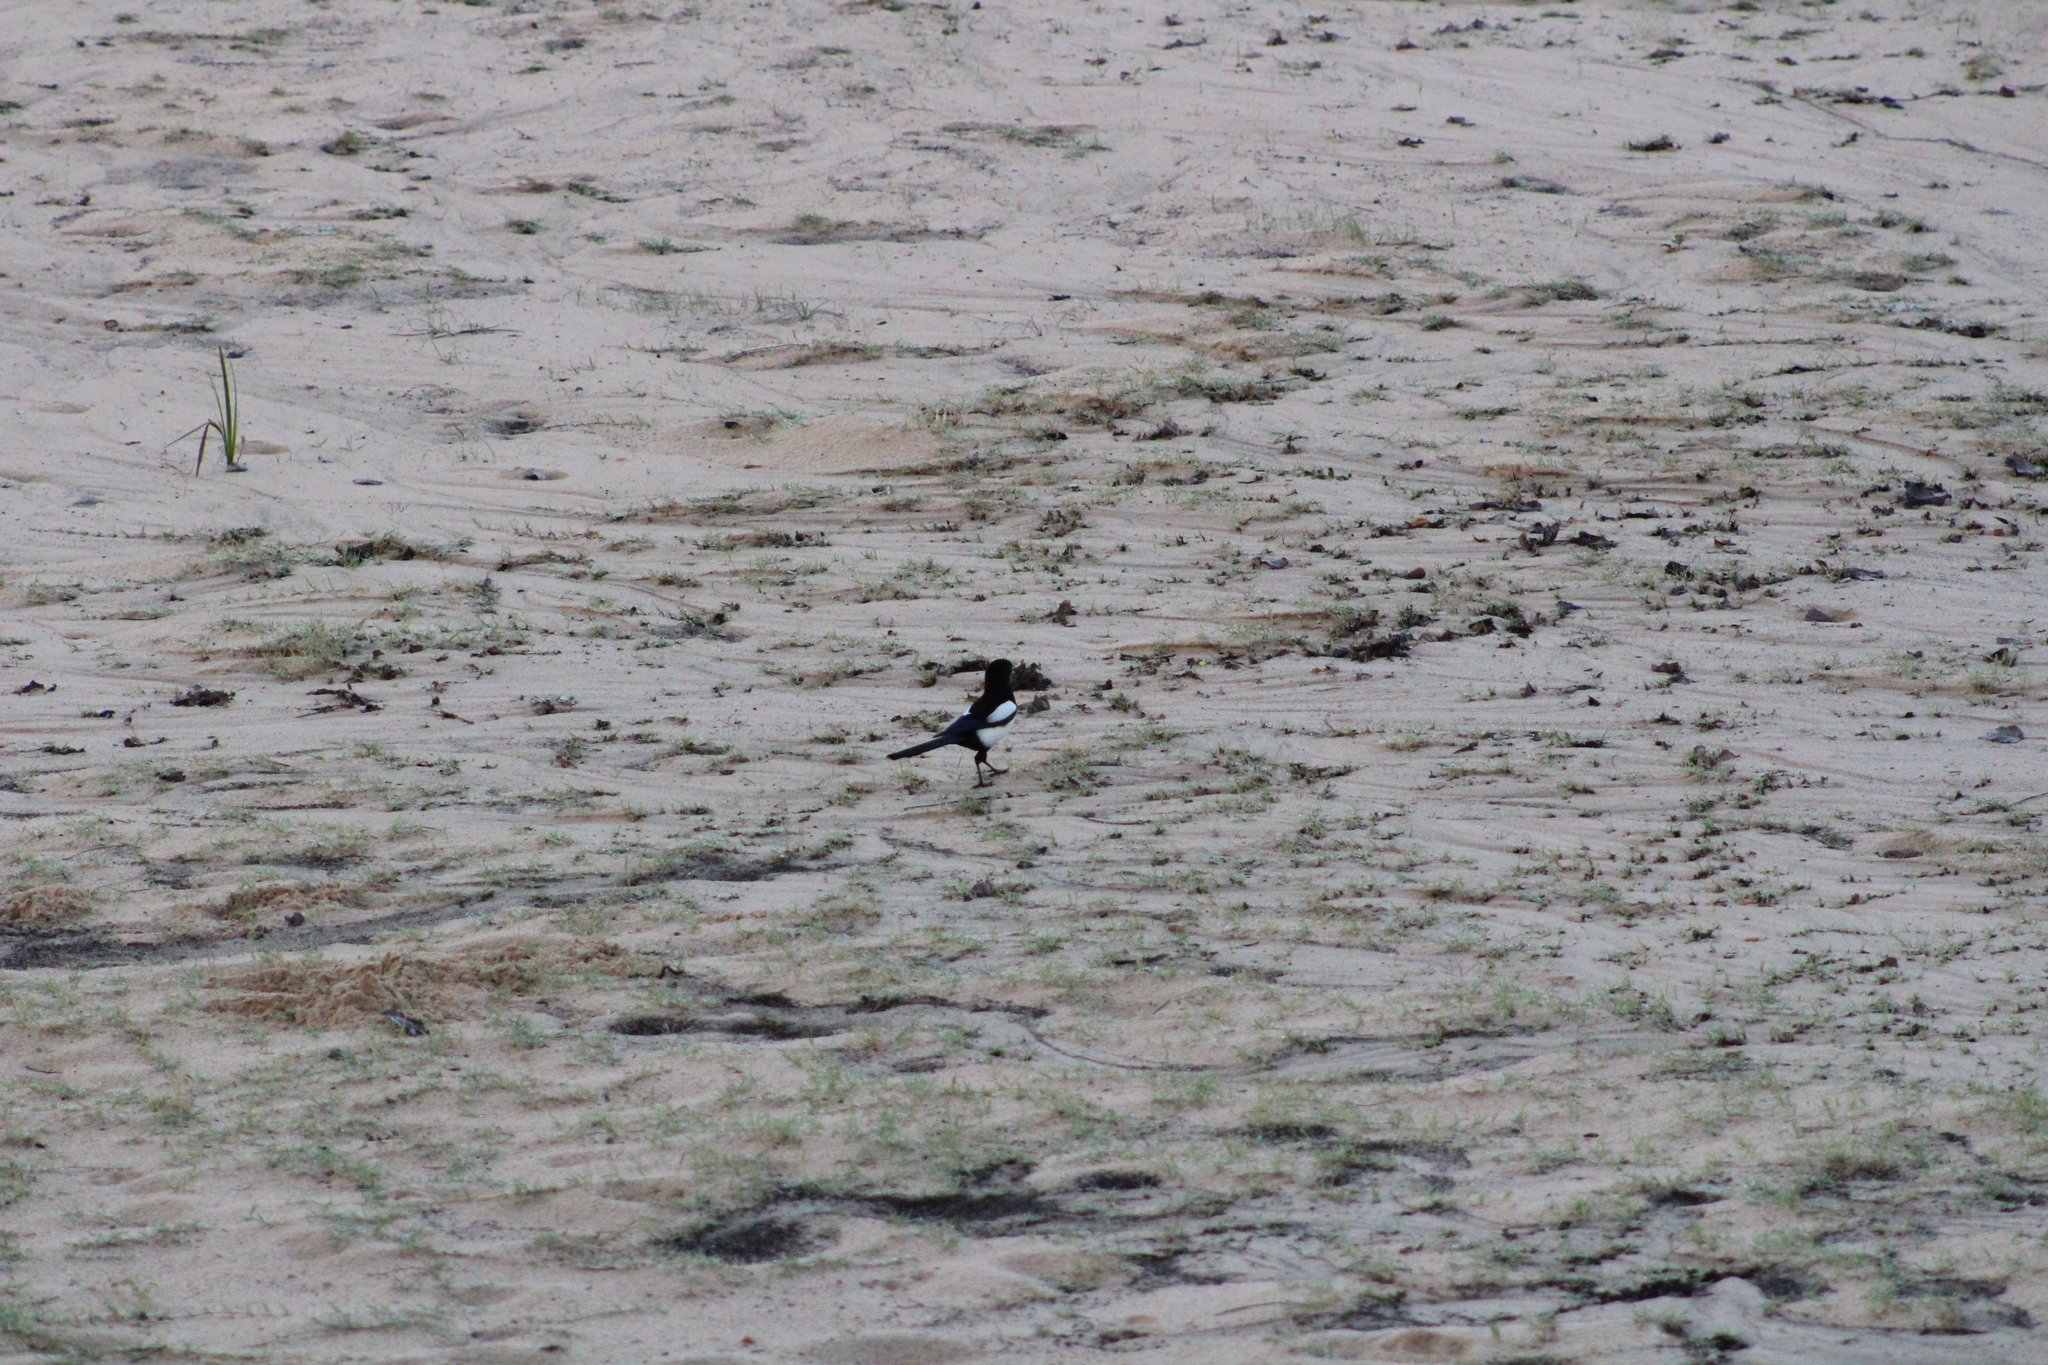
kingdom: Animalia
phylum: Chordata
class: Aves
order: Passeriformes
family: Corvidae
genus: Pica
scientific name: Pica pica
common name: Eurasian magpie
